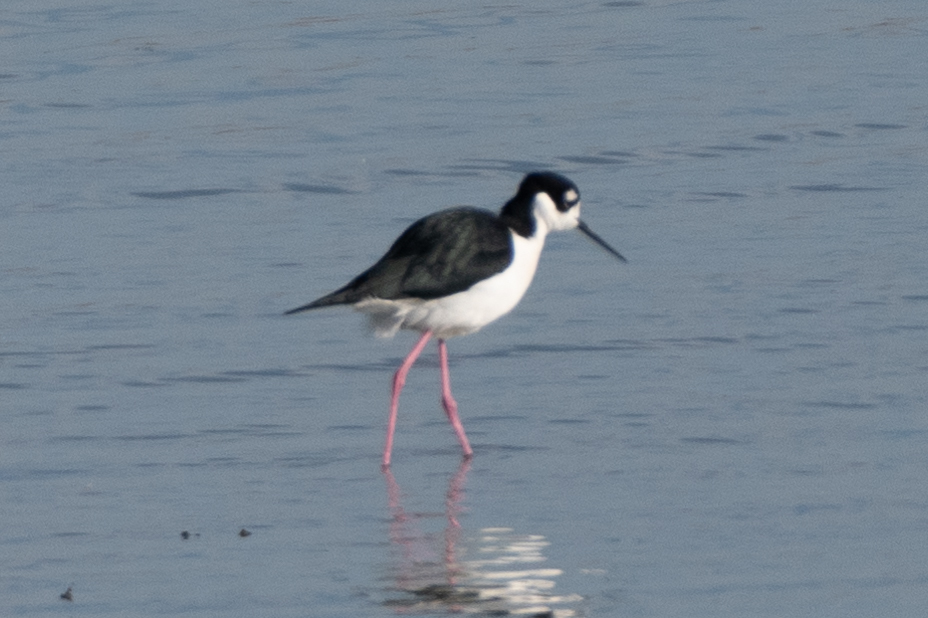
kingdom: Animalia
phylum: Chordata
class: Aves
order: Charadriiformes
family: Recurvirostridae
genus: Himantopus
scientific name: Himantopus mexicanus
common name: Black-necked stilt
